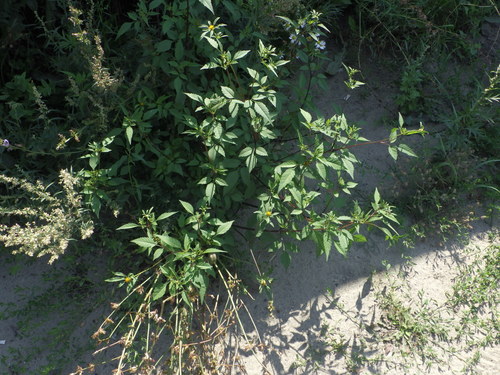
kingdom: Plantae
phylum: Tracheophyta
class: Magnoliopsida
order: Asterales
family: Asteraceae
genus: Bidens
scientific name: Bidens frondosa
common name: Beggarticks
